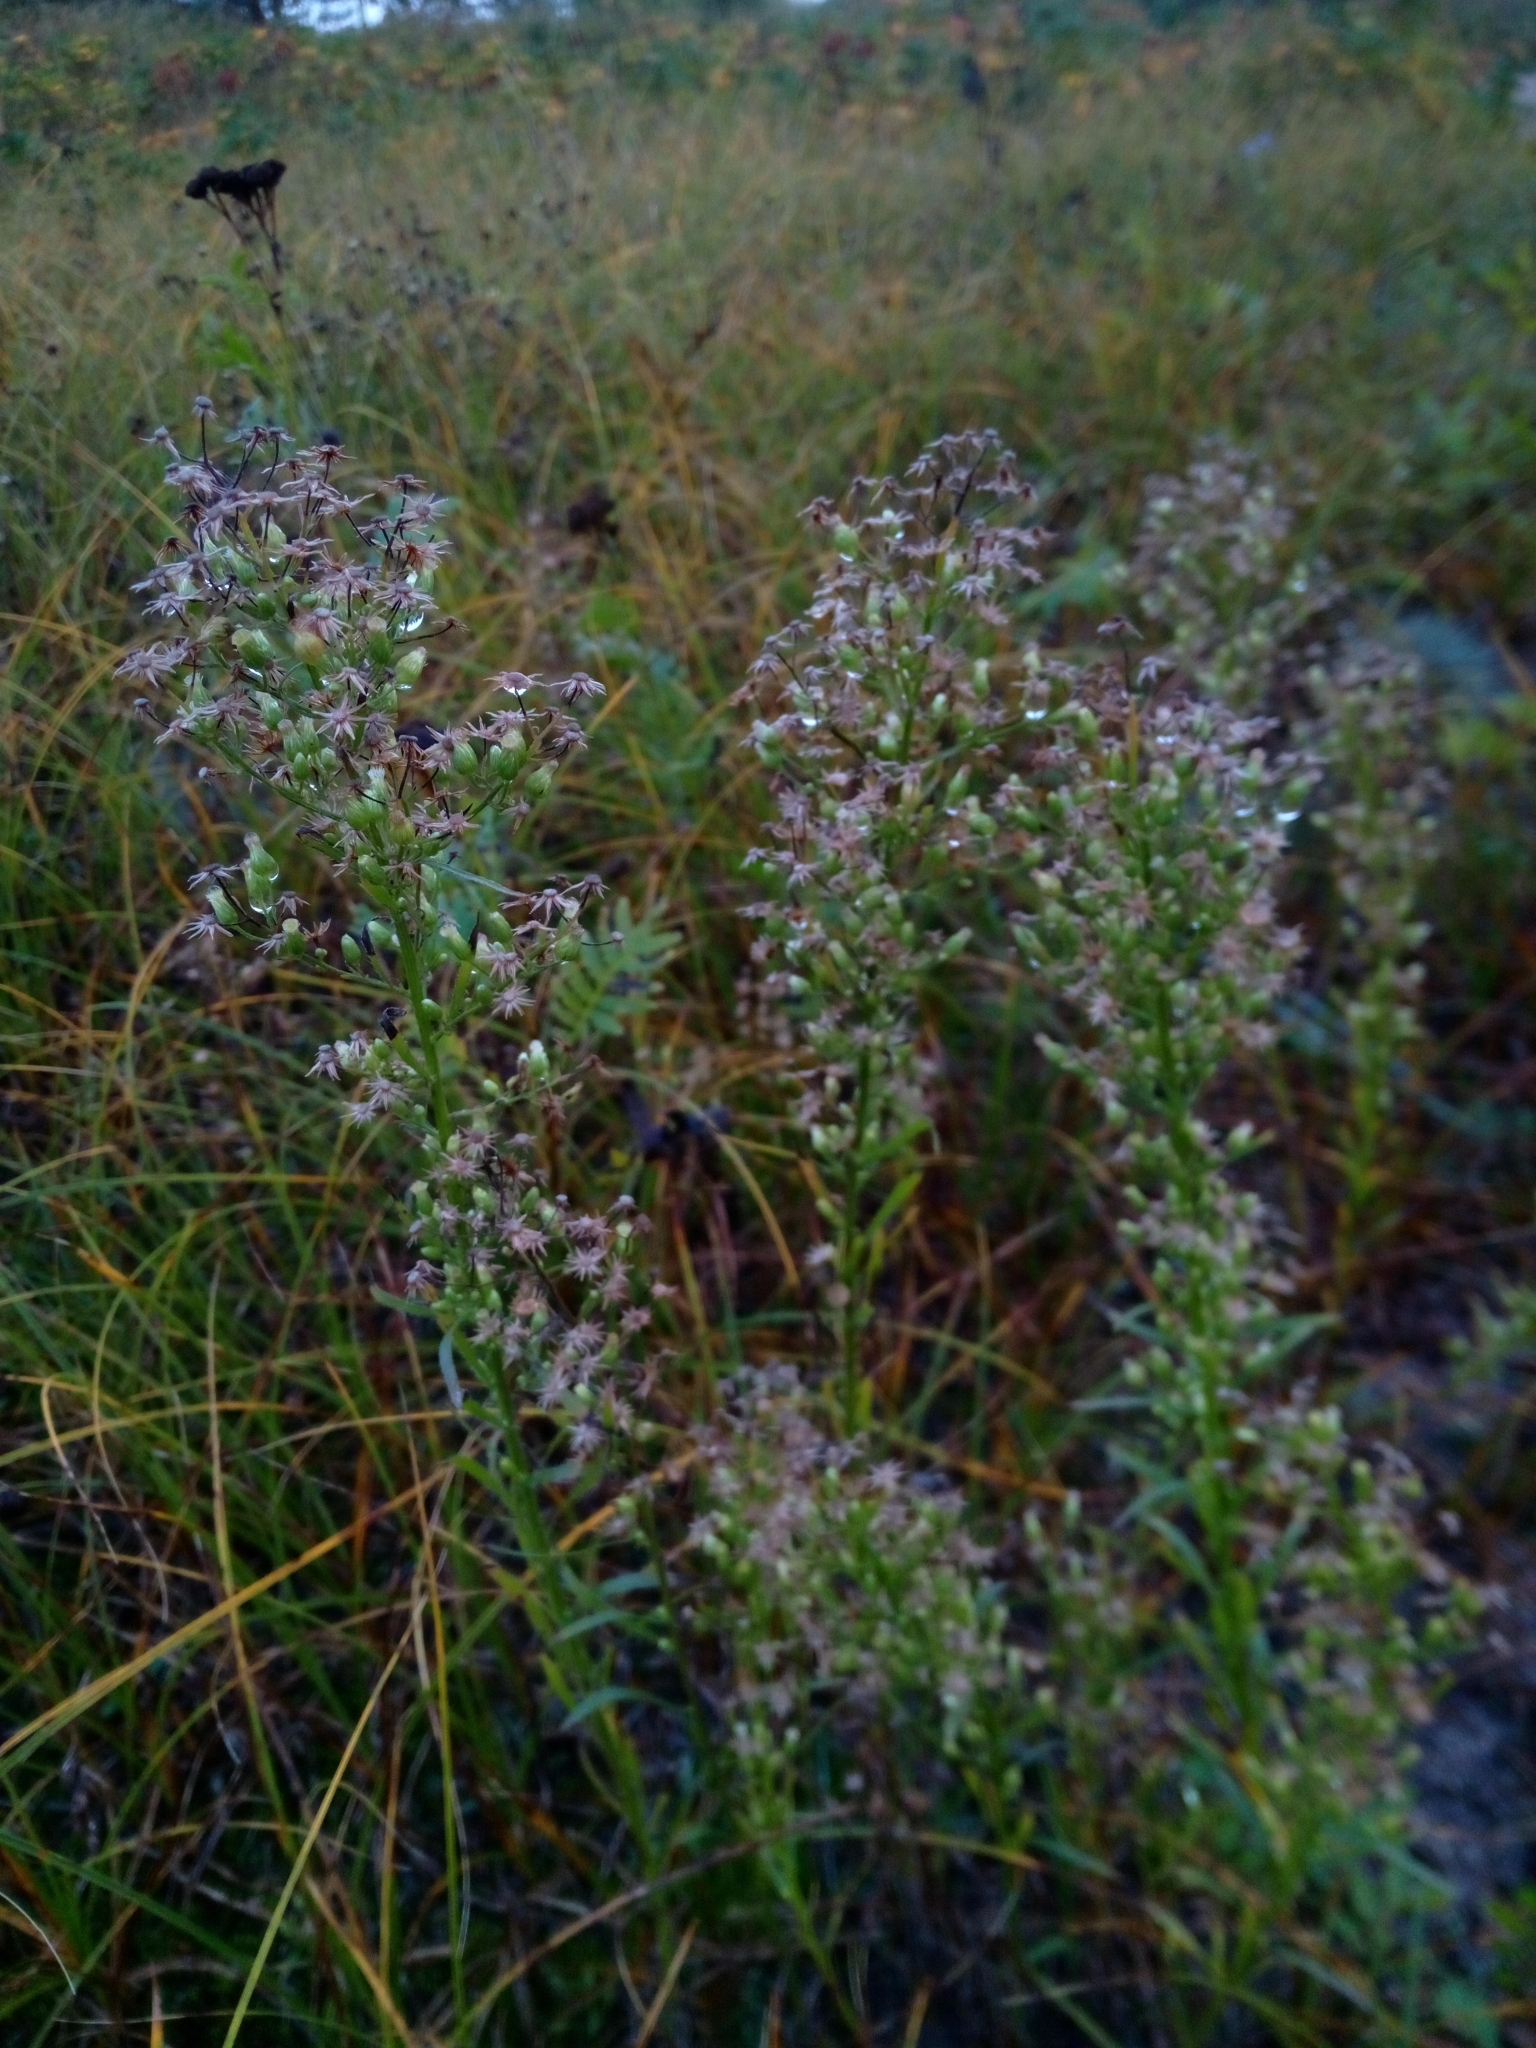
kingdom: Plantae
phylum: Tracheophyta
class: Magnoliopsida
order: Asterales
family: Asteraceae
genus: Erigeron
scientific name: Erigeron canadensis
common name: Canadian fleabane
